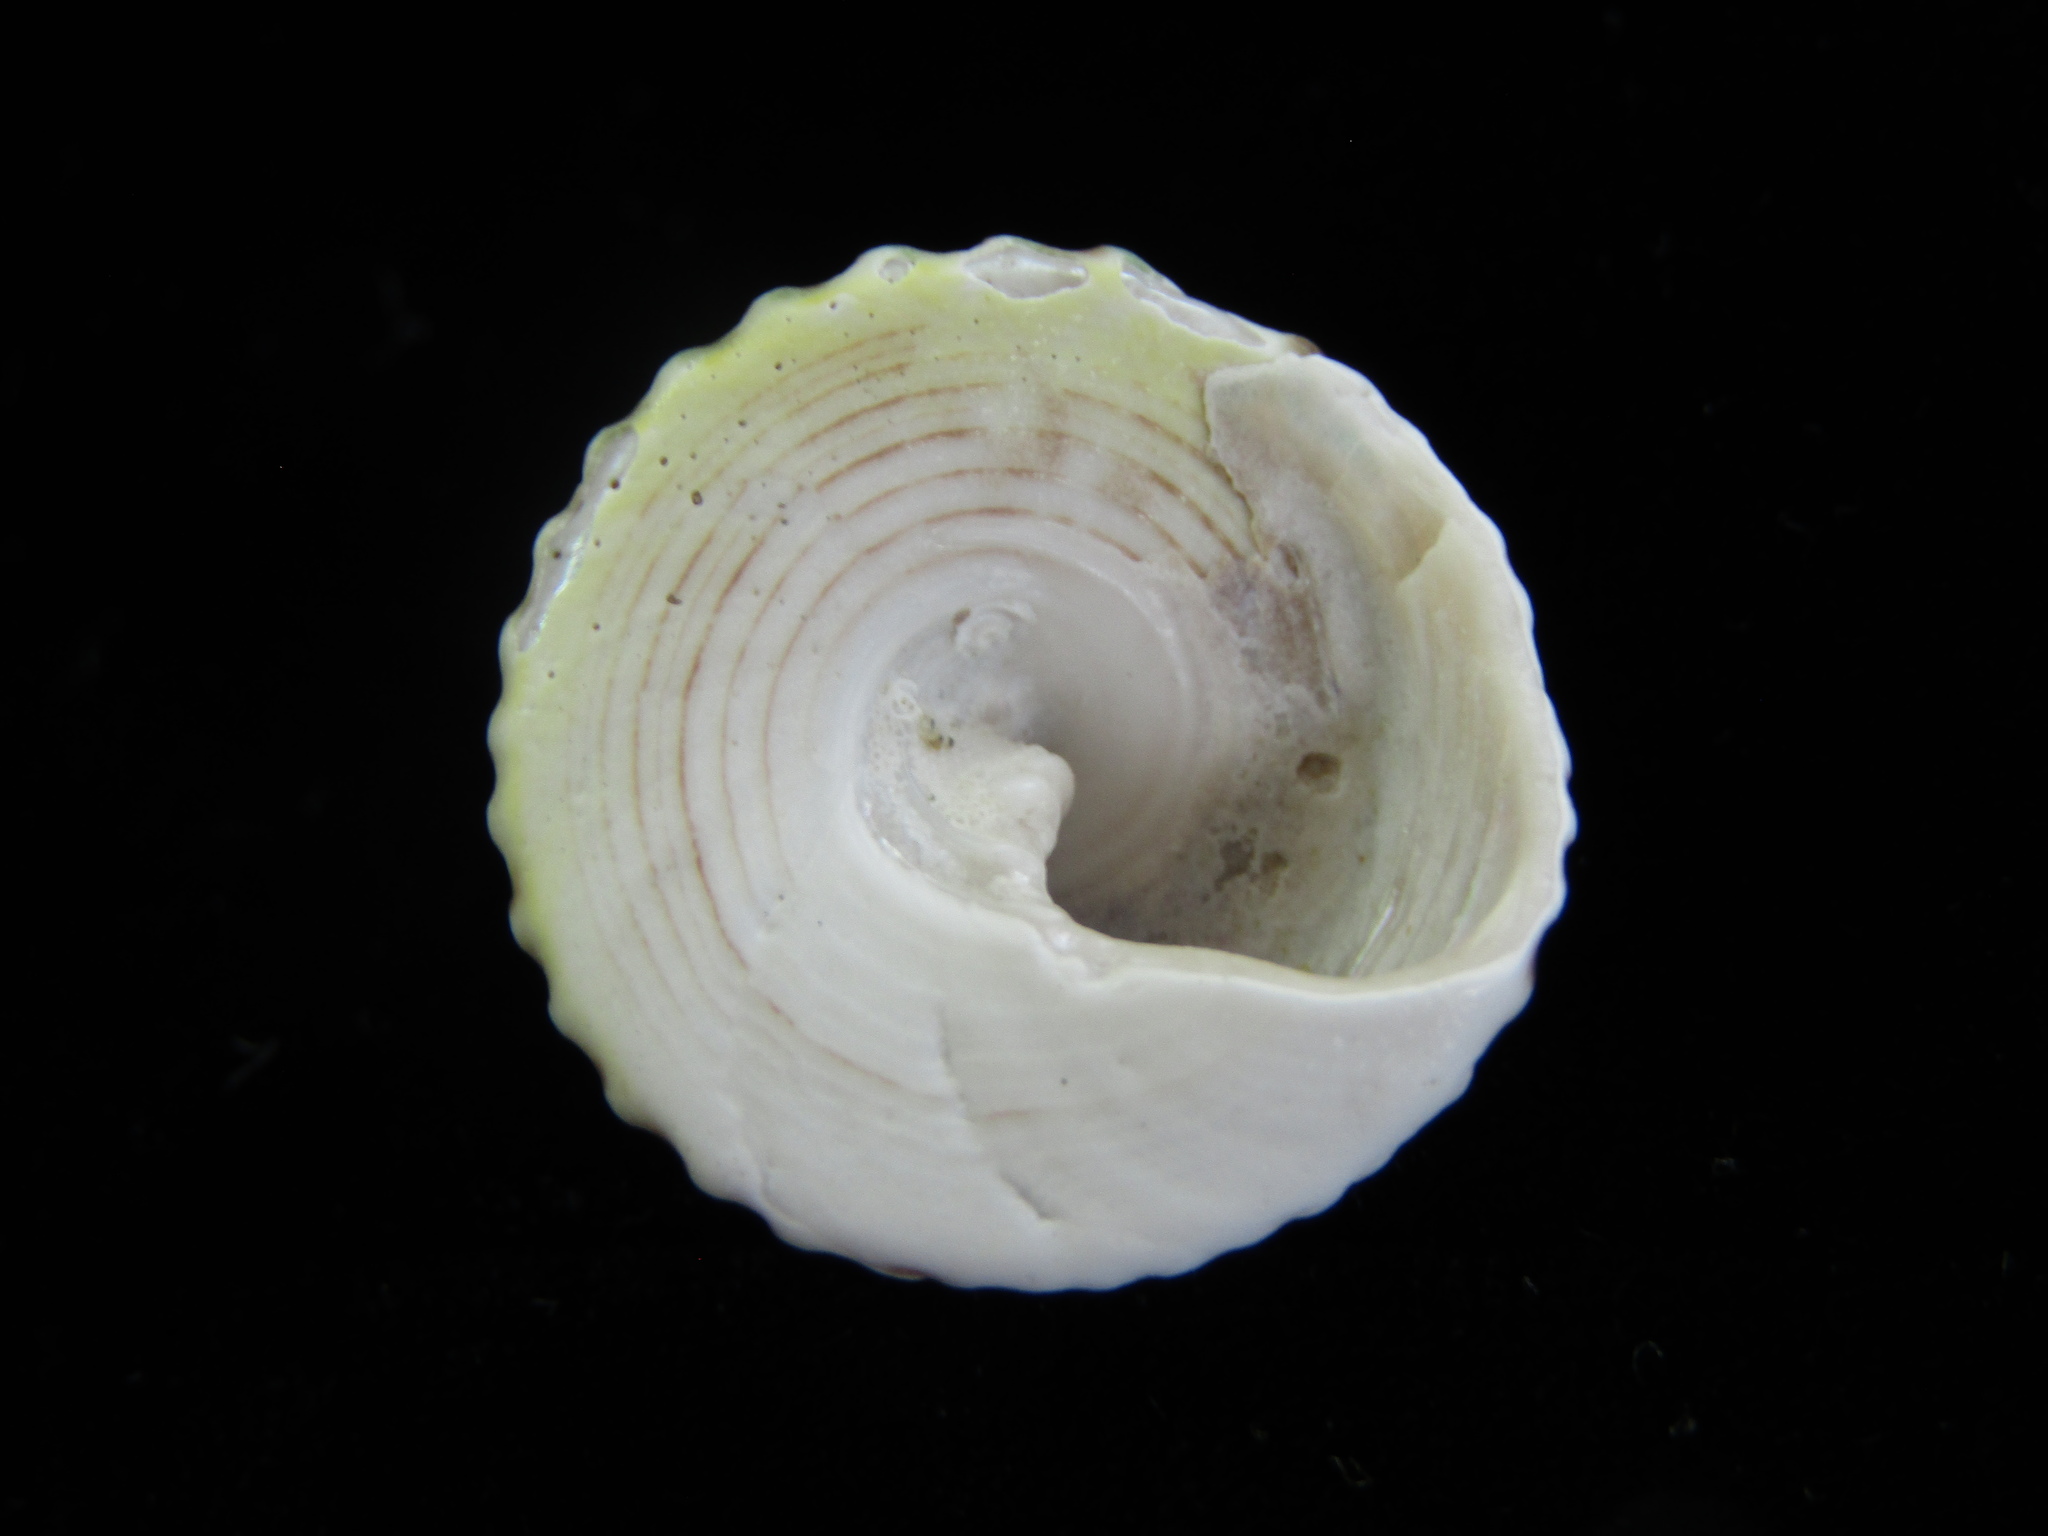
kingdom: Animalia
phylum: Mollusca
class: Gastropoda
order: Trochida
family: Trochidae
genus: Coelotrochus
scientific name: Coelotrochus viridis
